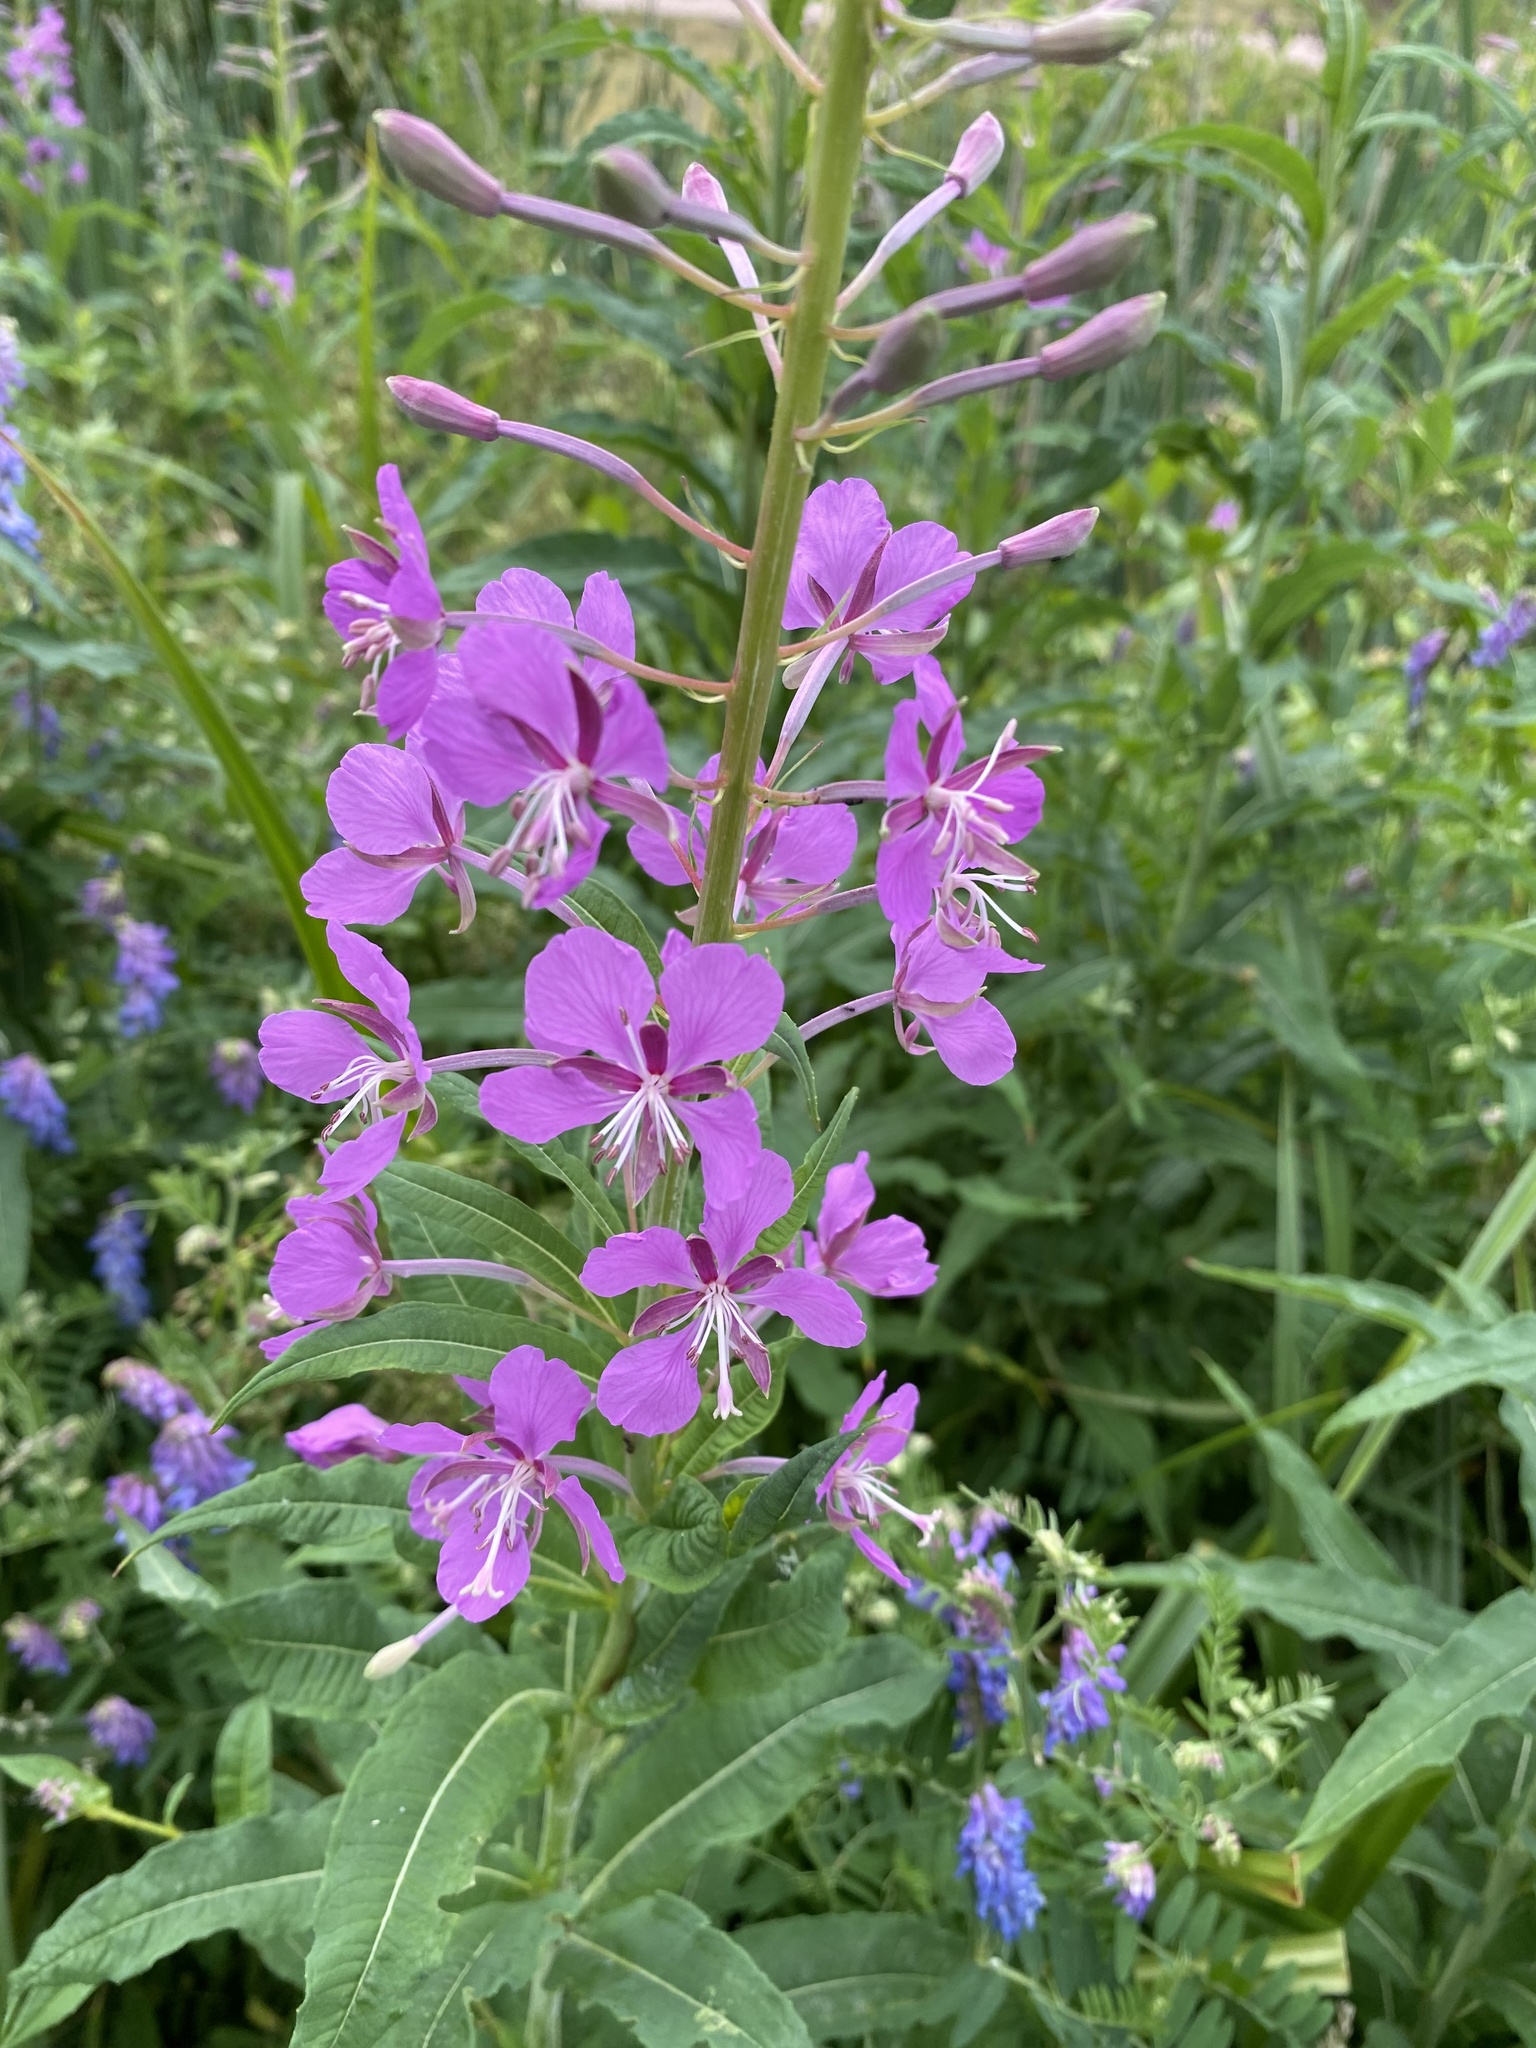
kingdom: Plantae
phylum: Tracheophyta
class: Magnoliopsida
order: Myrtales
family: Onagraceae
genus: Chamaenerion
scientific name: Chamaenerion angustifolium
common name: Fireweed
